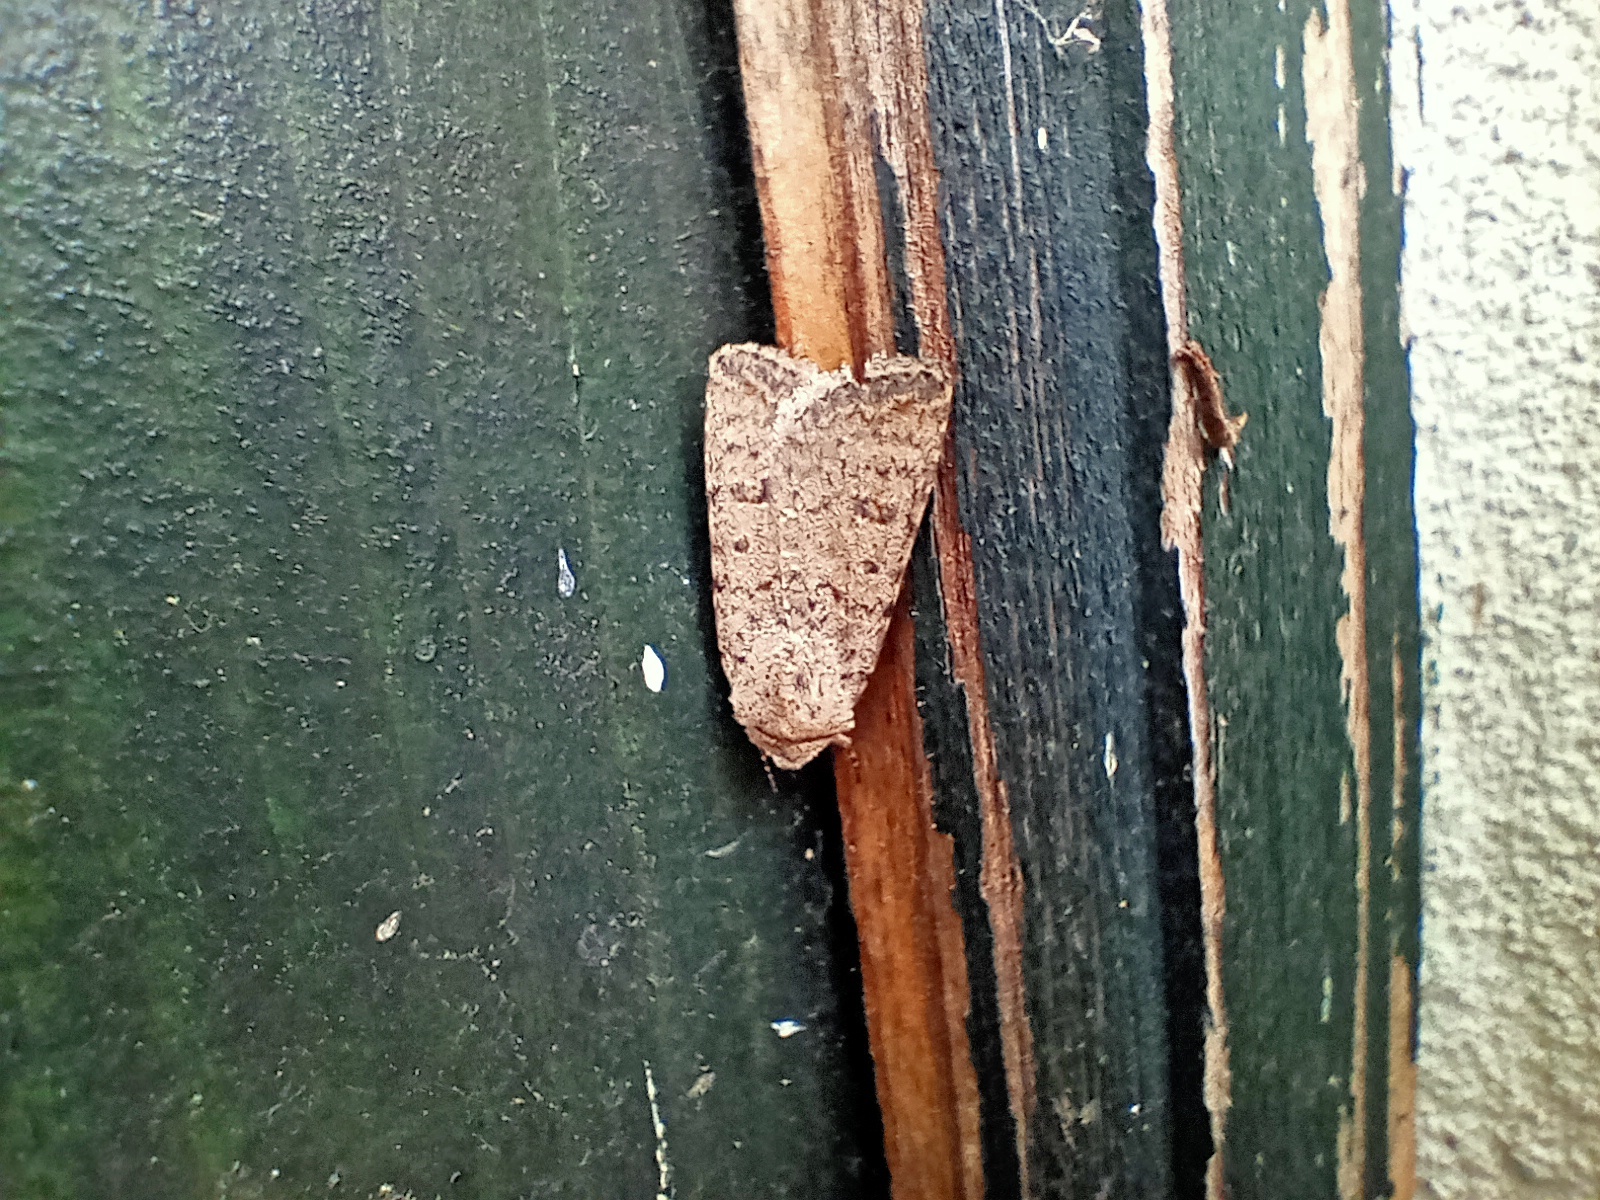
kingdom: Animalia
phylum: Arthropoda
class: Insecta
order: Lepidoptera
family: Noctuidae
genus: Caradrina
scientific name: Caradrina clavipalpis
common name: Pale mottled willow
